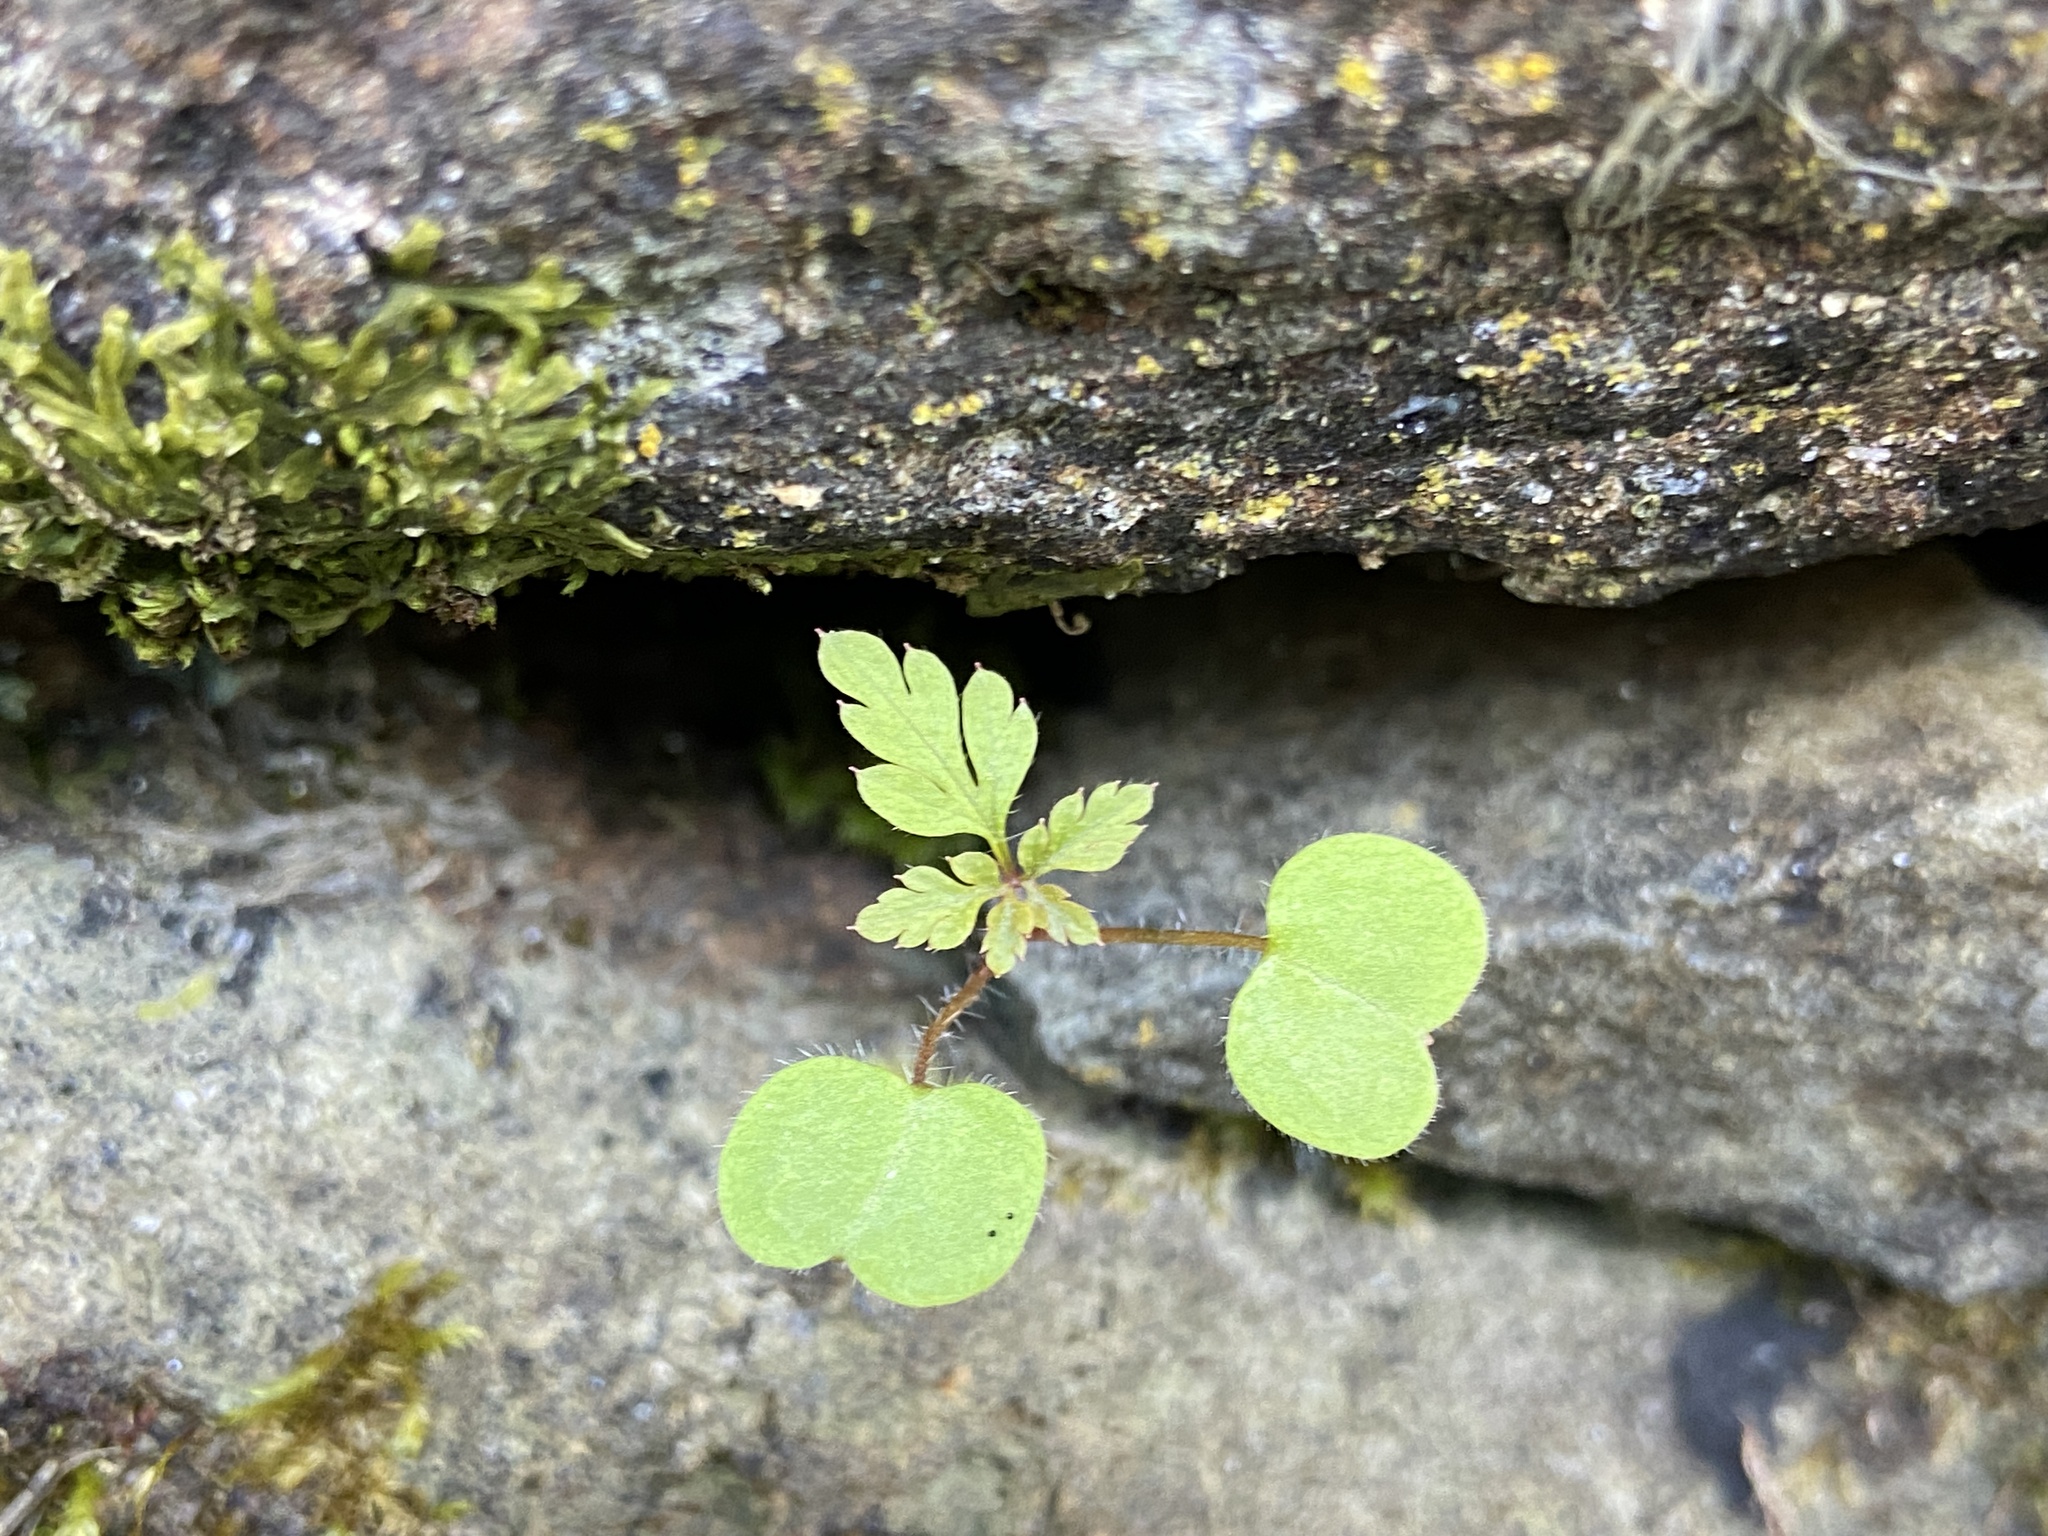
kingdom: Plantae
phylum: Tracheophyta
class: Magnoliopsida
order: Geraniales
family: Geraniaceae
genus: Geranium
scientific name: Geranium robertianum
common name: Herb-robert
